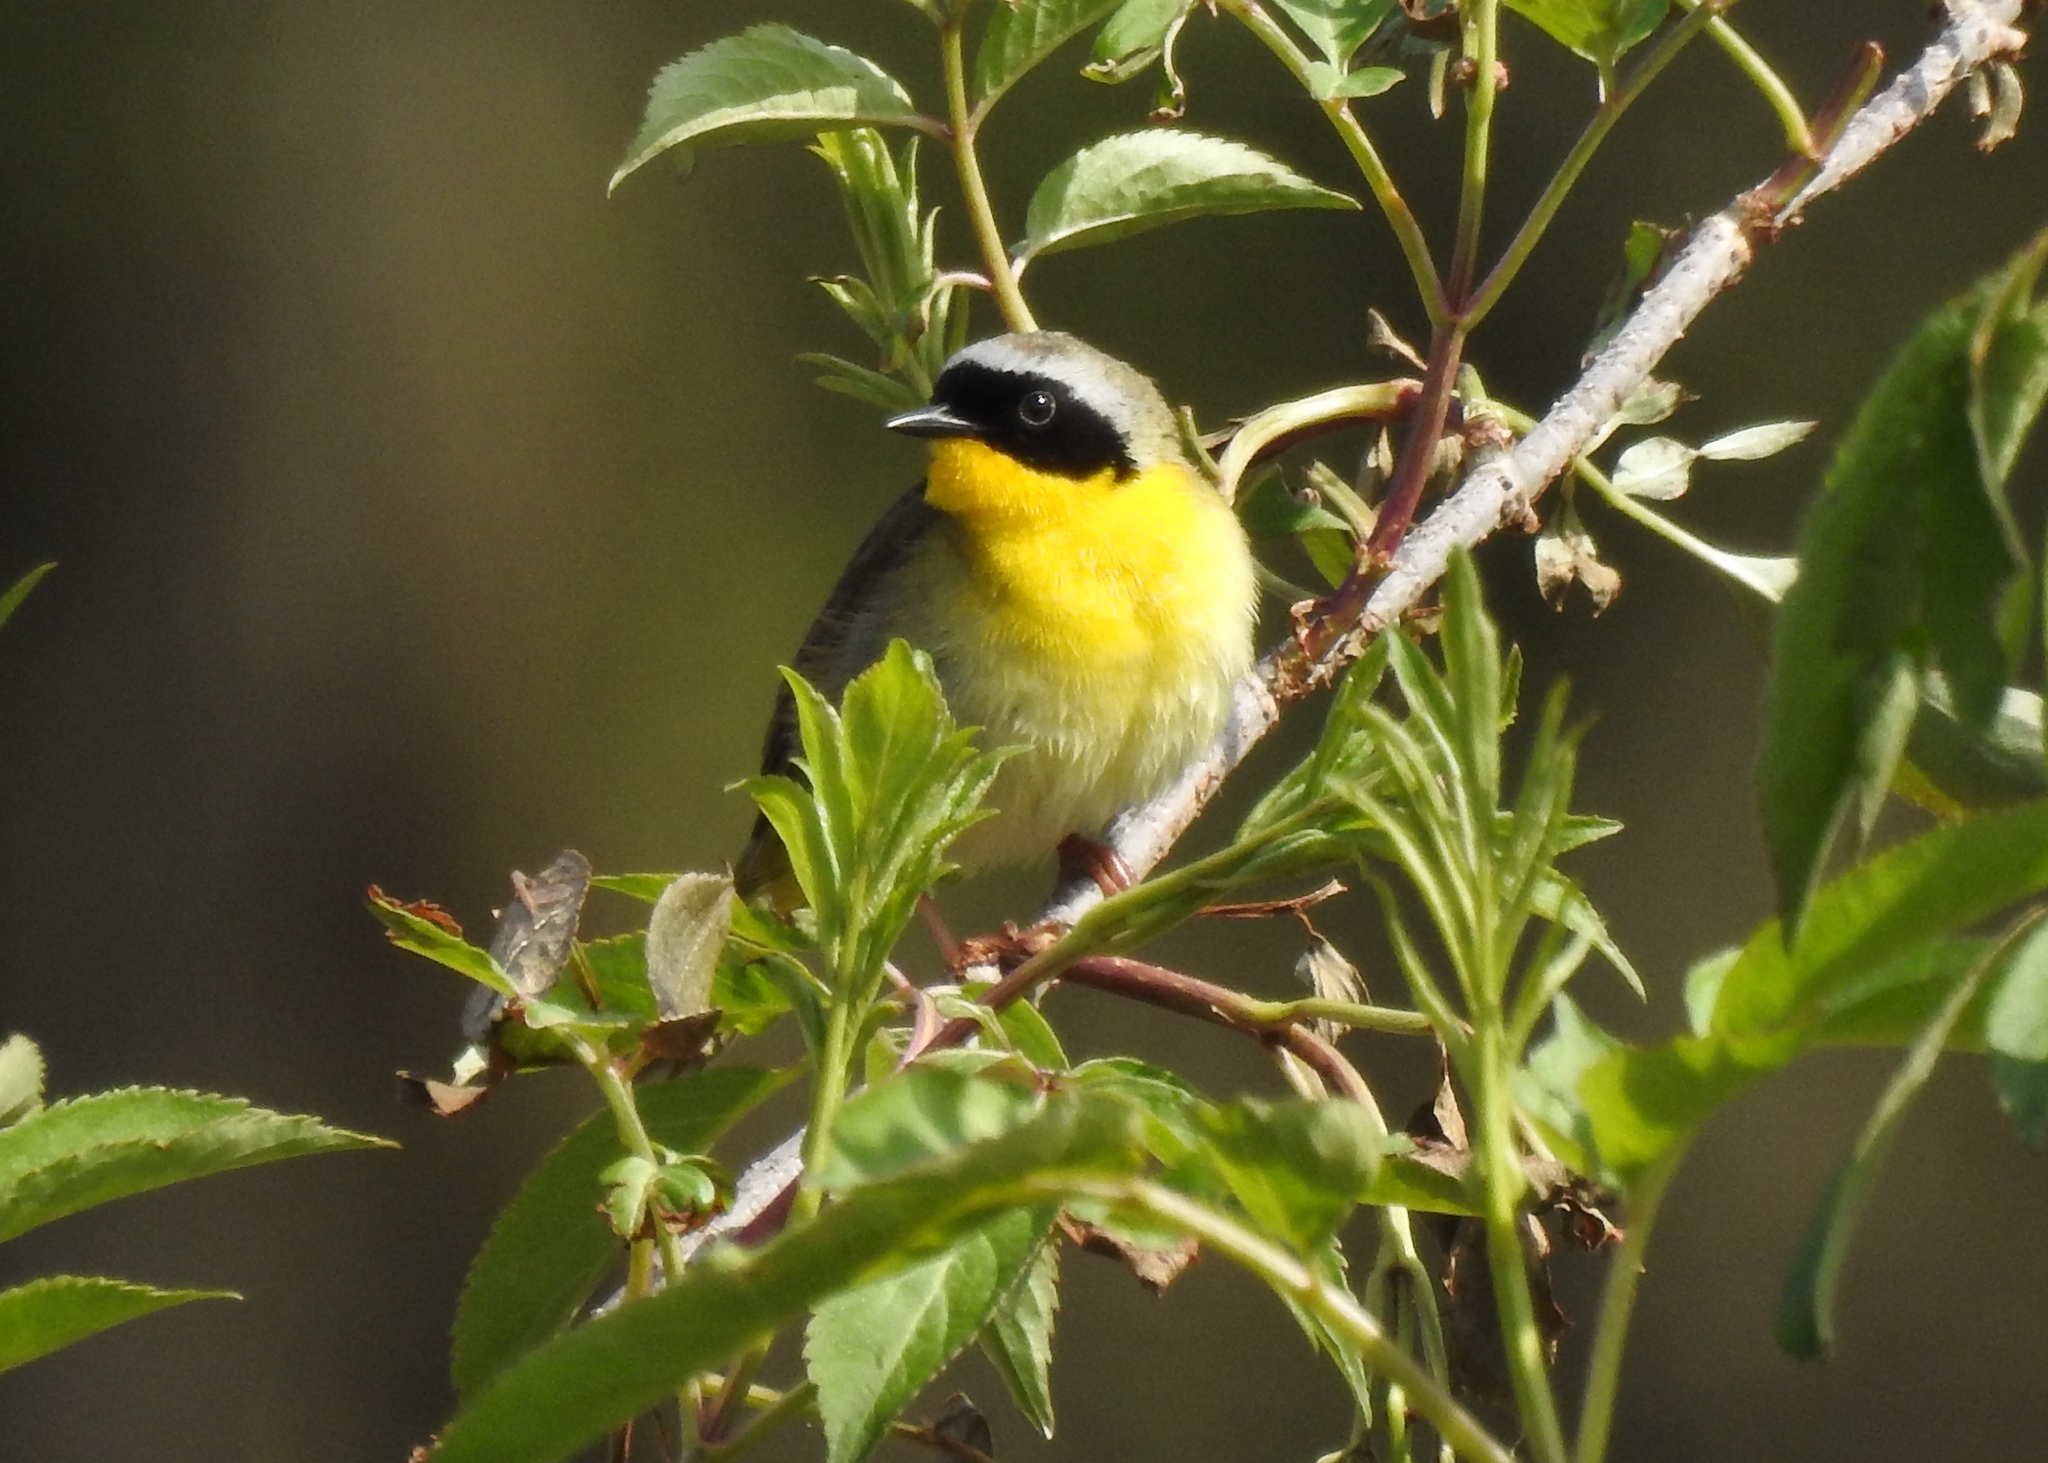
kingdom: Animalia
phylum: Chordata
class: Aves
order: Passeriformes
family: Parulidae
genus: Geothlypis
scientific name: Geothlypis trichas
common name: Common yellowthroat
